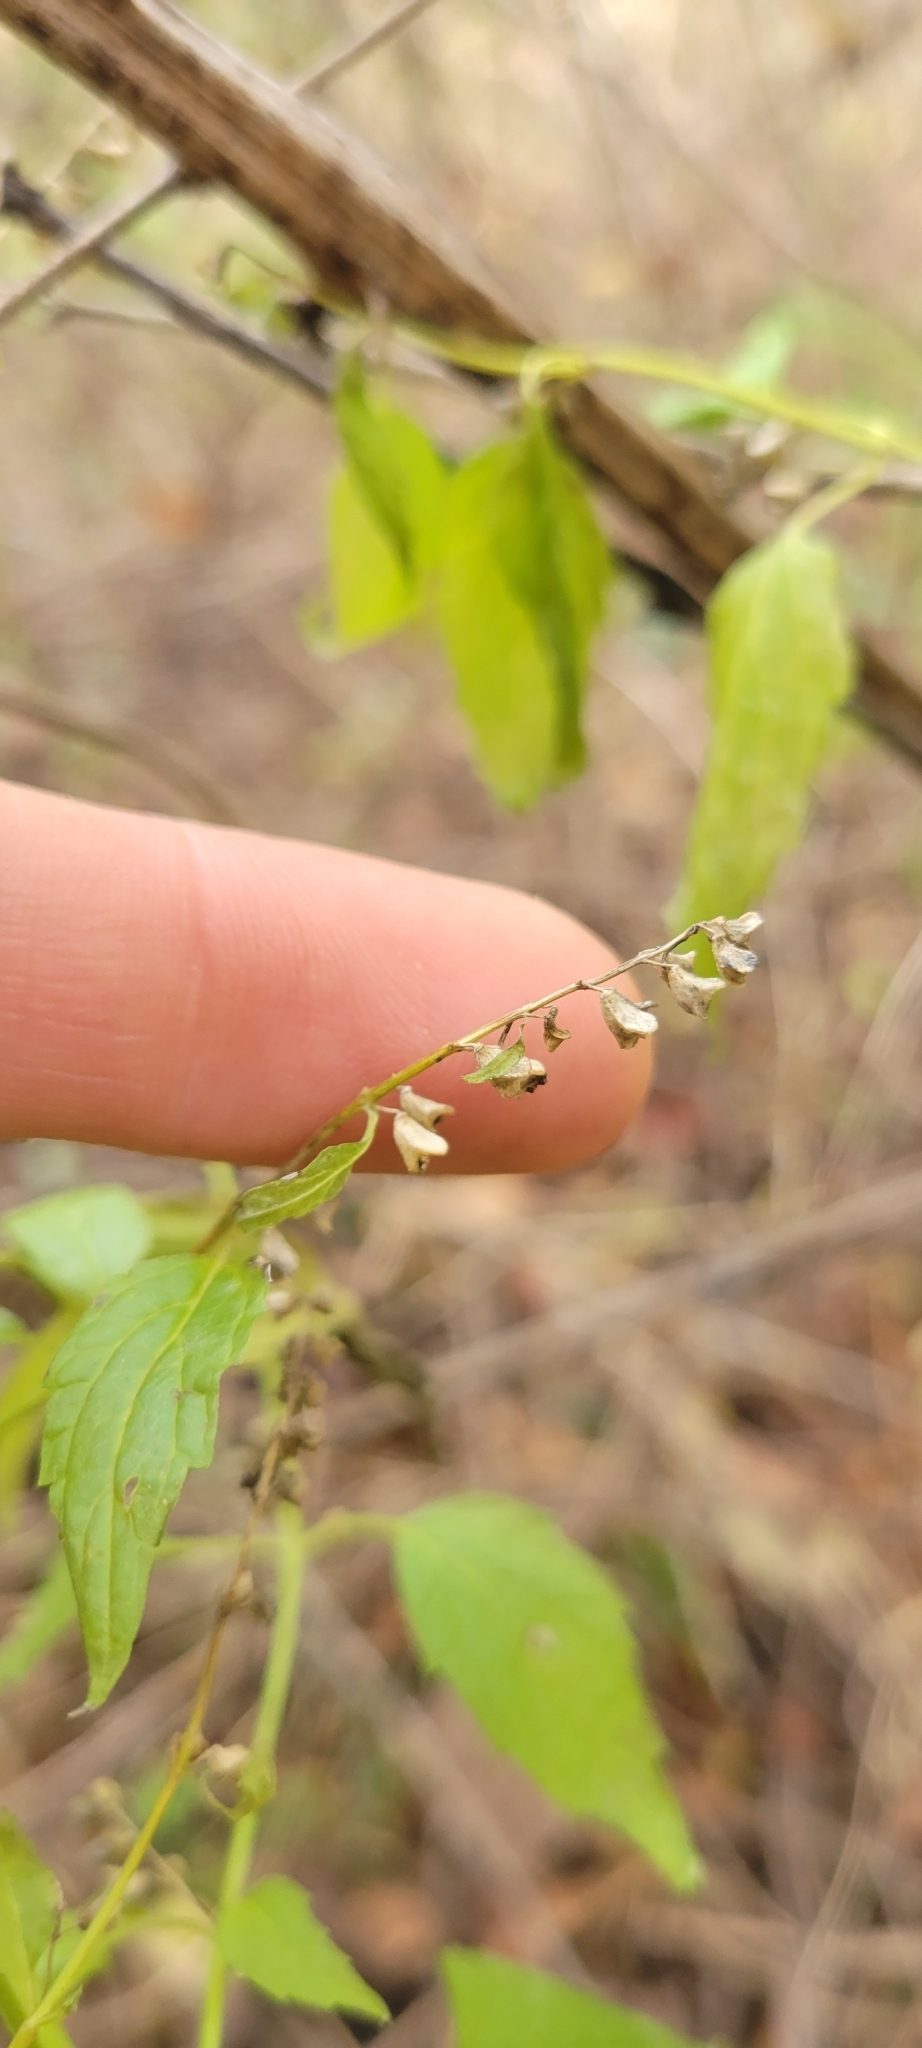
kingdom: Plantae
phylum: Tracheophyta
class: Magnoliopsida
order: Lamiales
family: Lamiaceae
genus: Scutellaria
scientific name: Scutellaria lateriflora
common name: Blue skullcap
